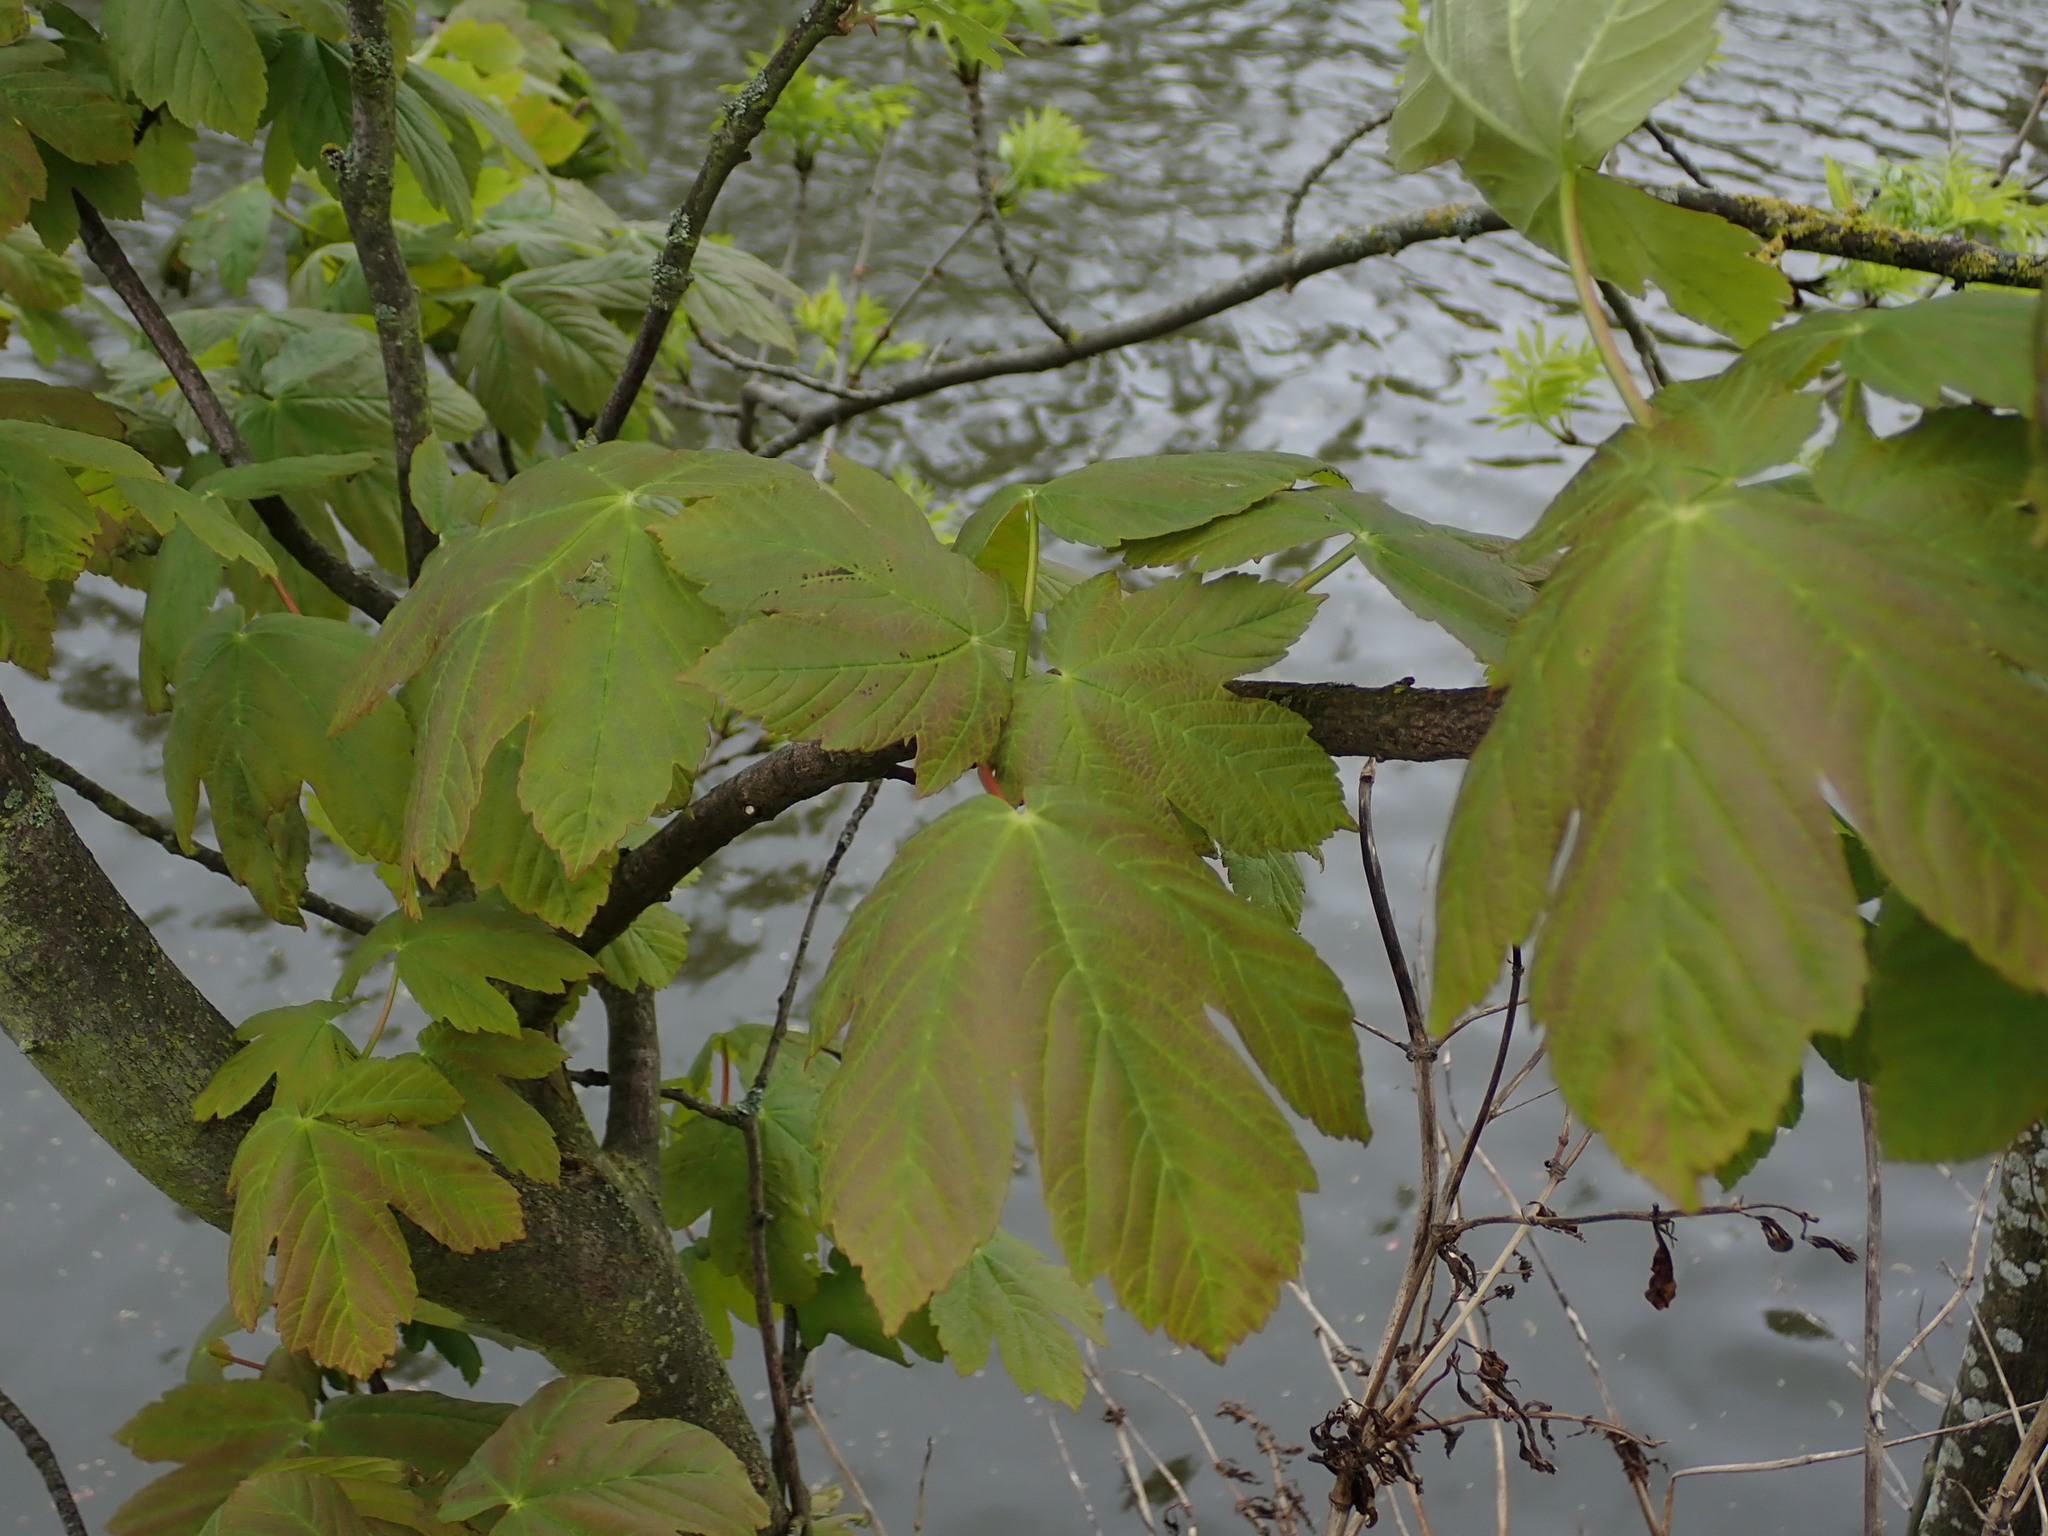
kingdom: Plantae
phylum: Tracheophyta
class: Magnoliopsida
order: Sapindales
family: Sapindaceae
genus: Acer
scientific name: Acer pseudoplatanus
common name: Sycamore
